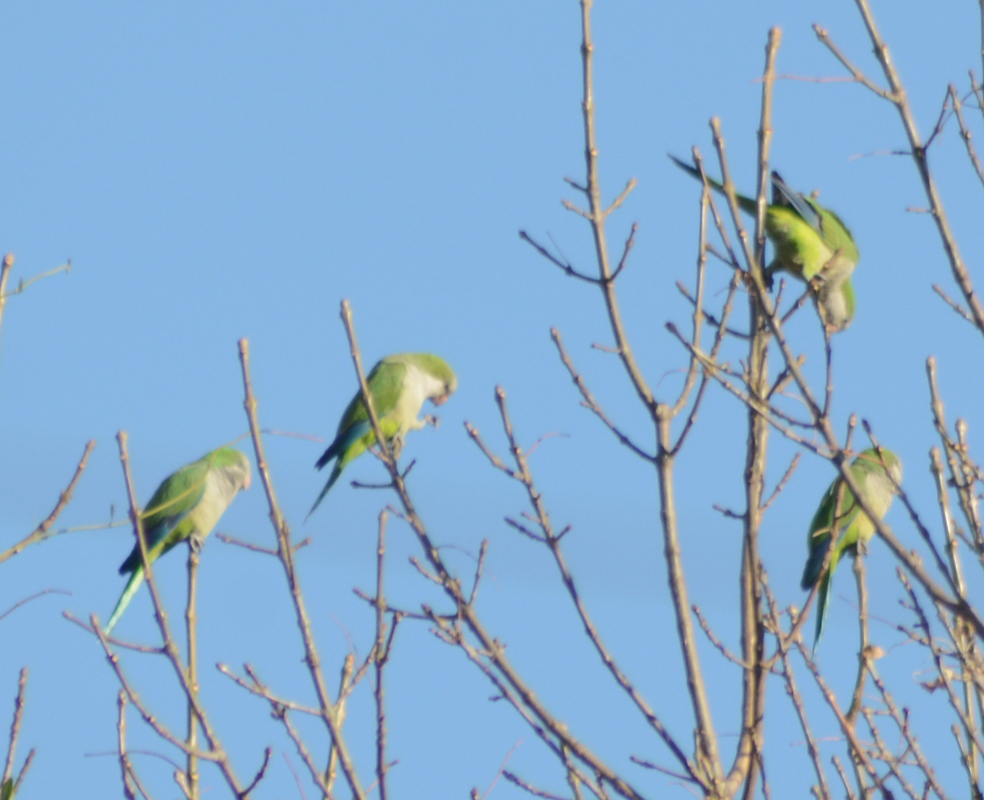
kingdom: Animalia
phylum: Chordata
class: Aves
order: Psittaciformes
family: Psittacidae
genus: Myiopsitta
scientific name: Myiopsitta monachus
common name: Monk parakeet
